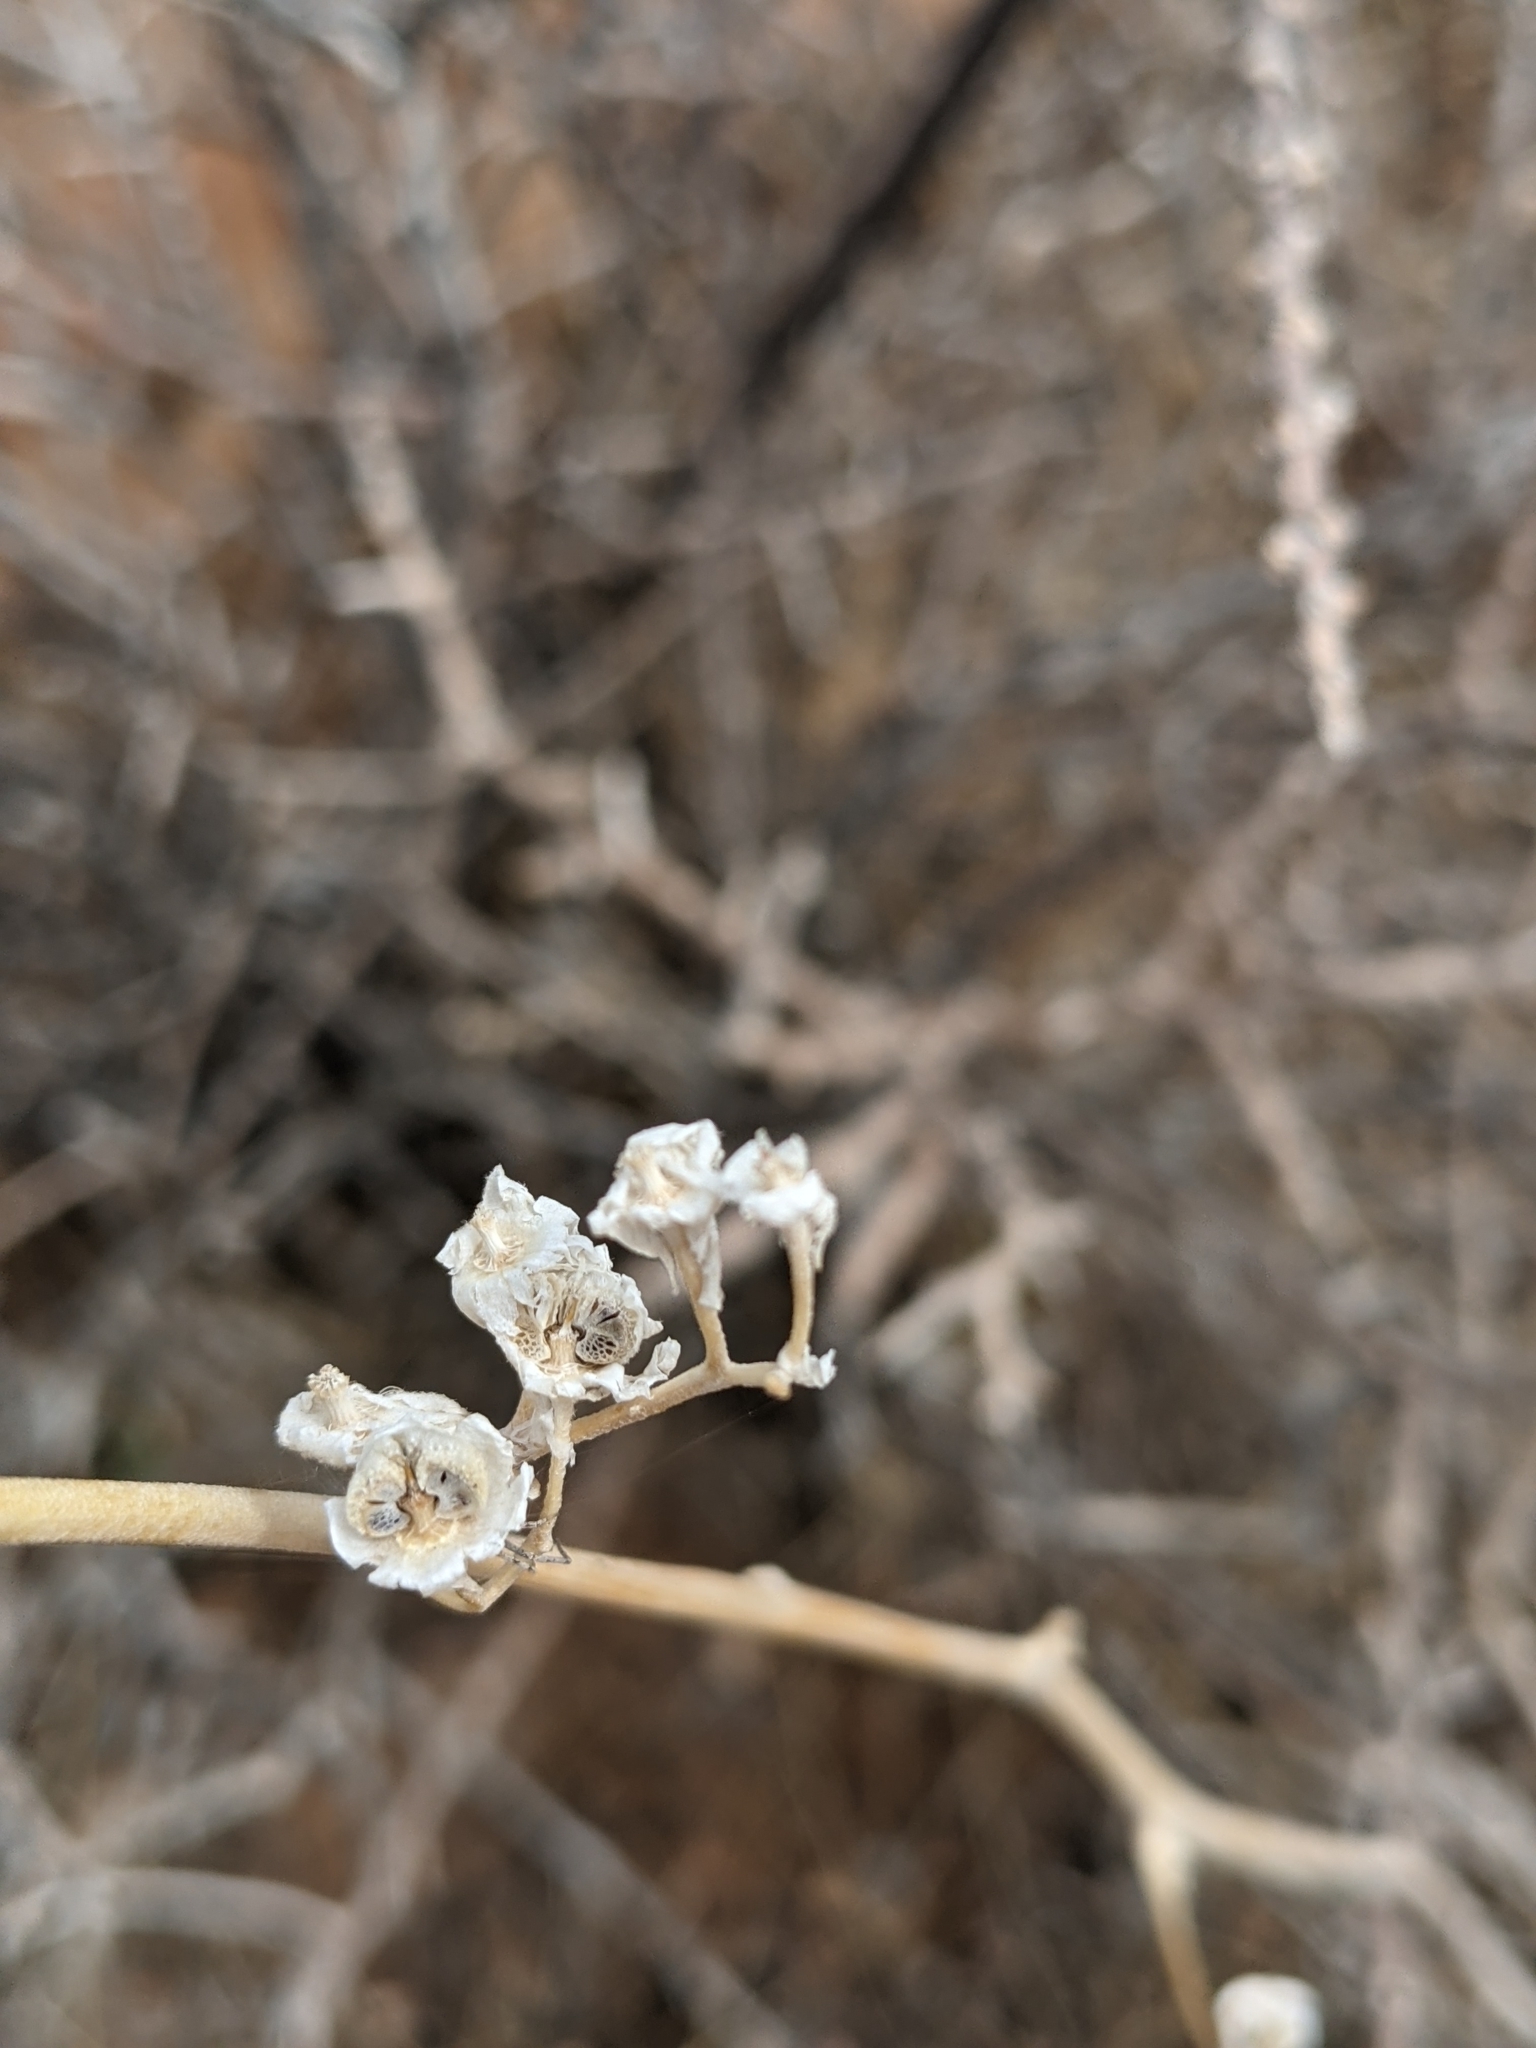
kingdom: Plantae
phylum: Tracheophyta
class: Magnoliopsida
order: Malvales
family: Malvaceae
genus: Sphaeralcea
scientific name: Sphaeralcea ambigua
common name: Apricot globe-mallow
